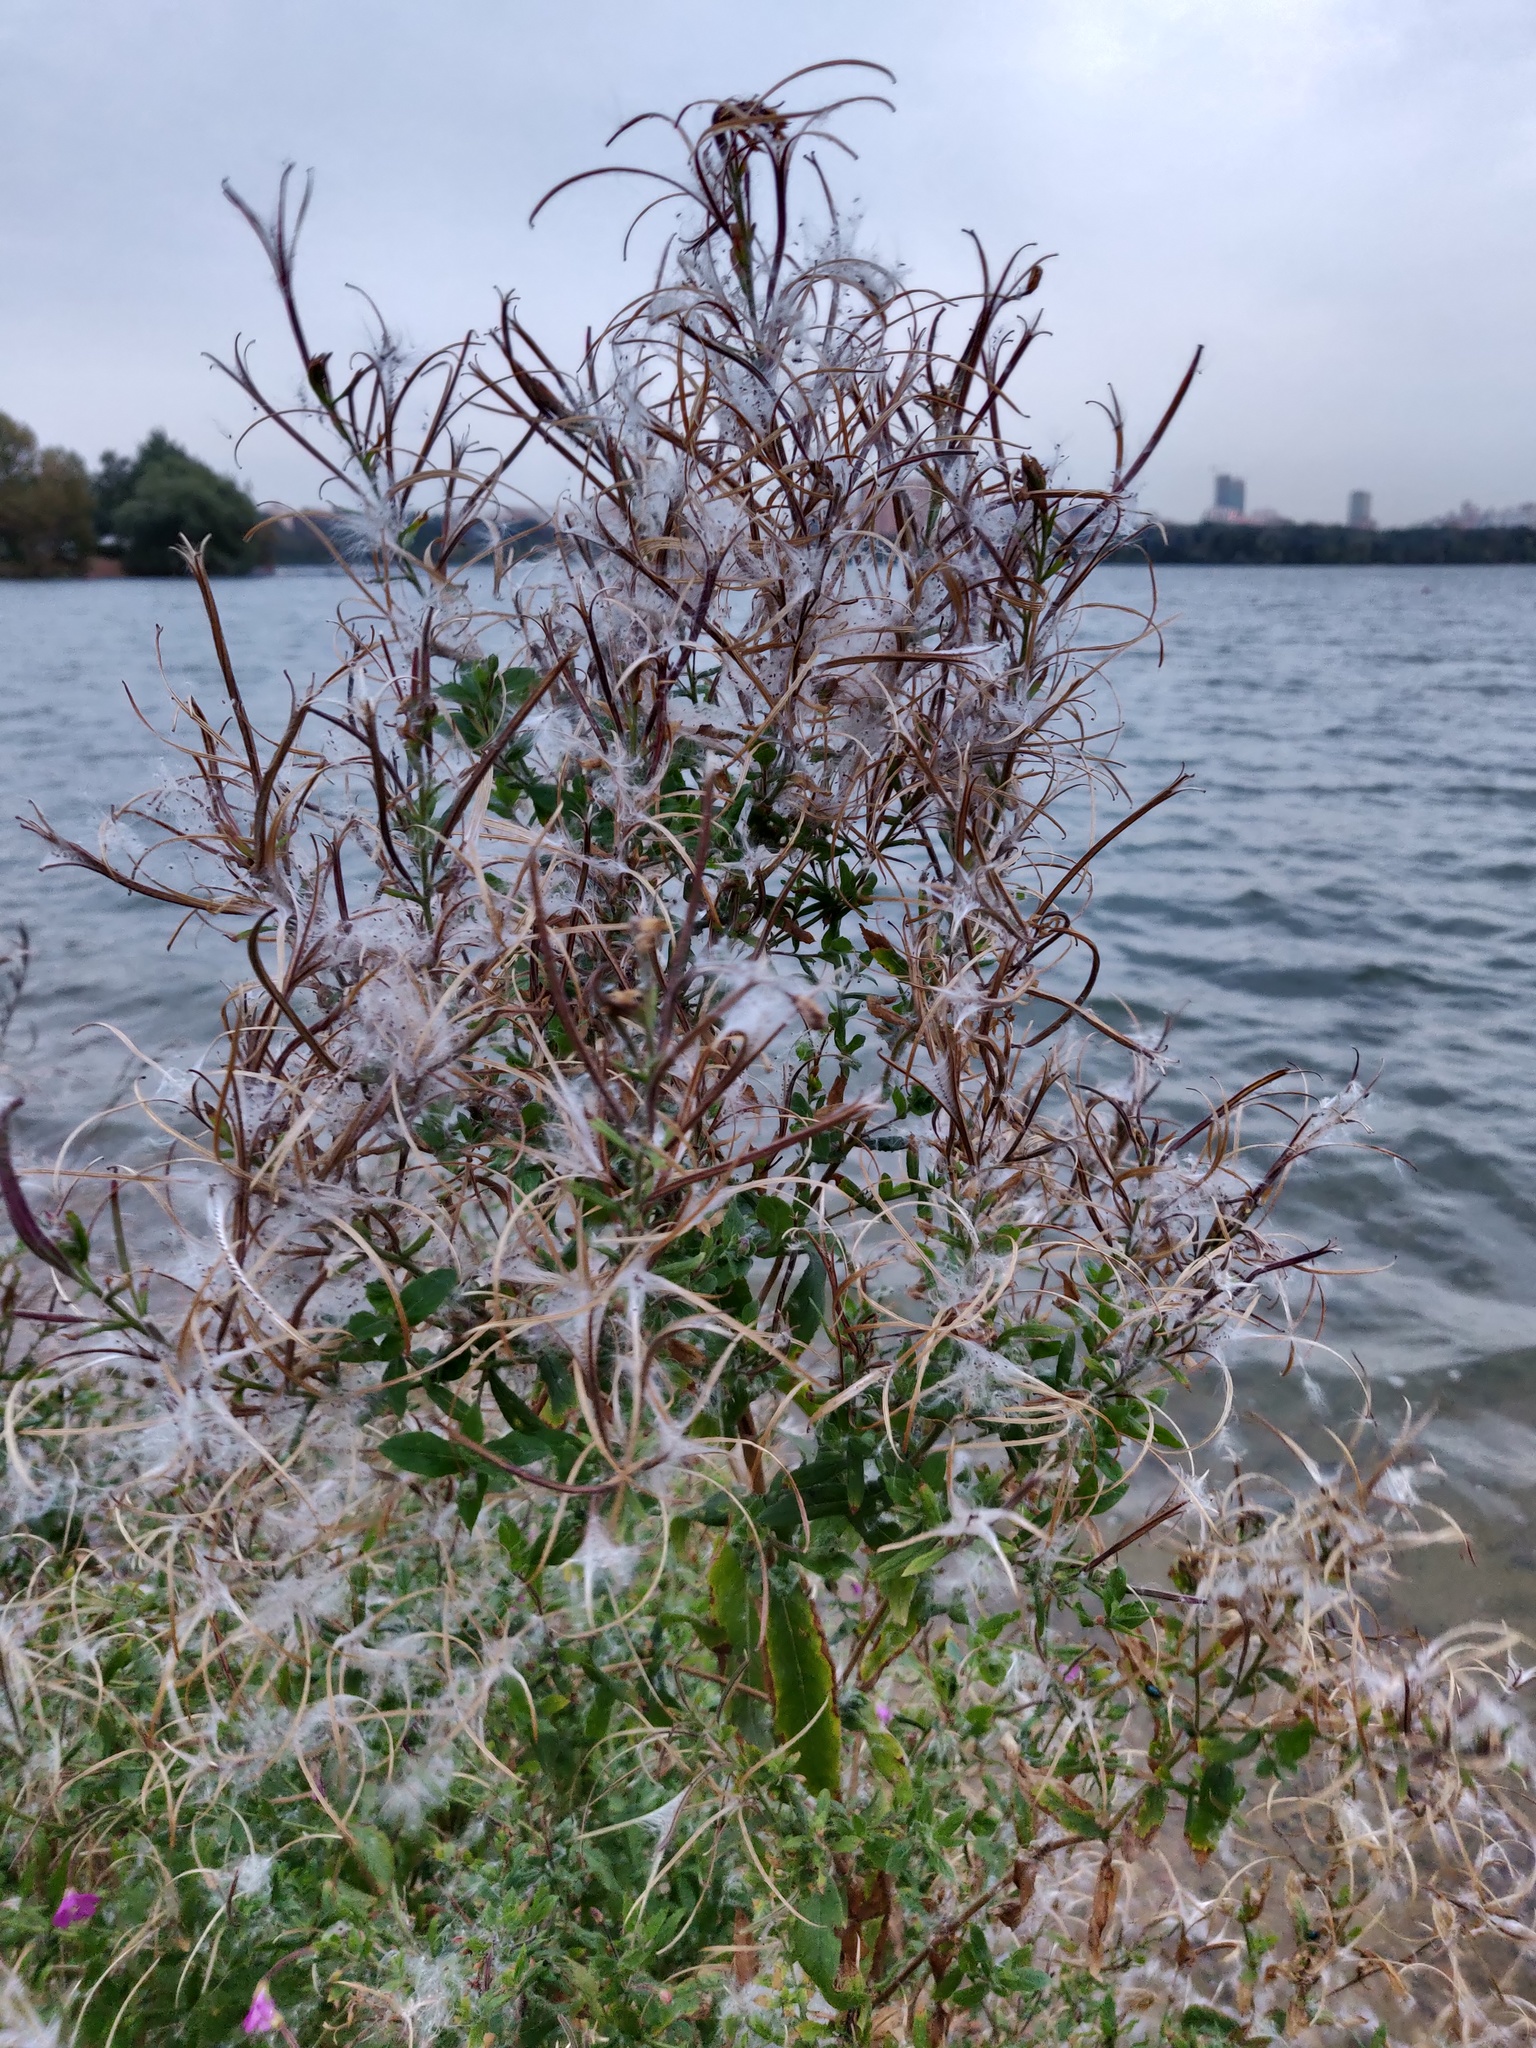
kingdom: Plantae
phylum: Tracheophyta
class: Magnoliopsida
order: Myrtales
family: Onagraceae
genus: Epilobium
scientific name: Epilobium hirsutum
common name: Great willowherb
